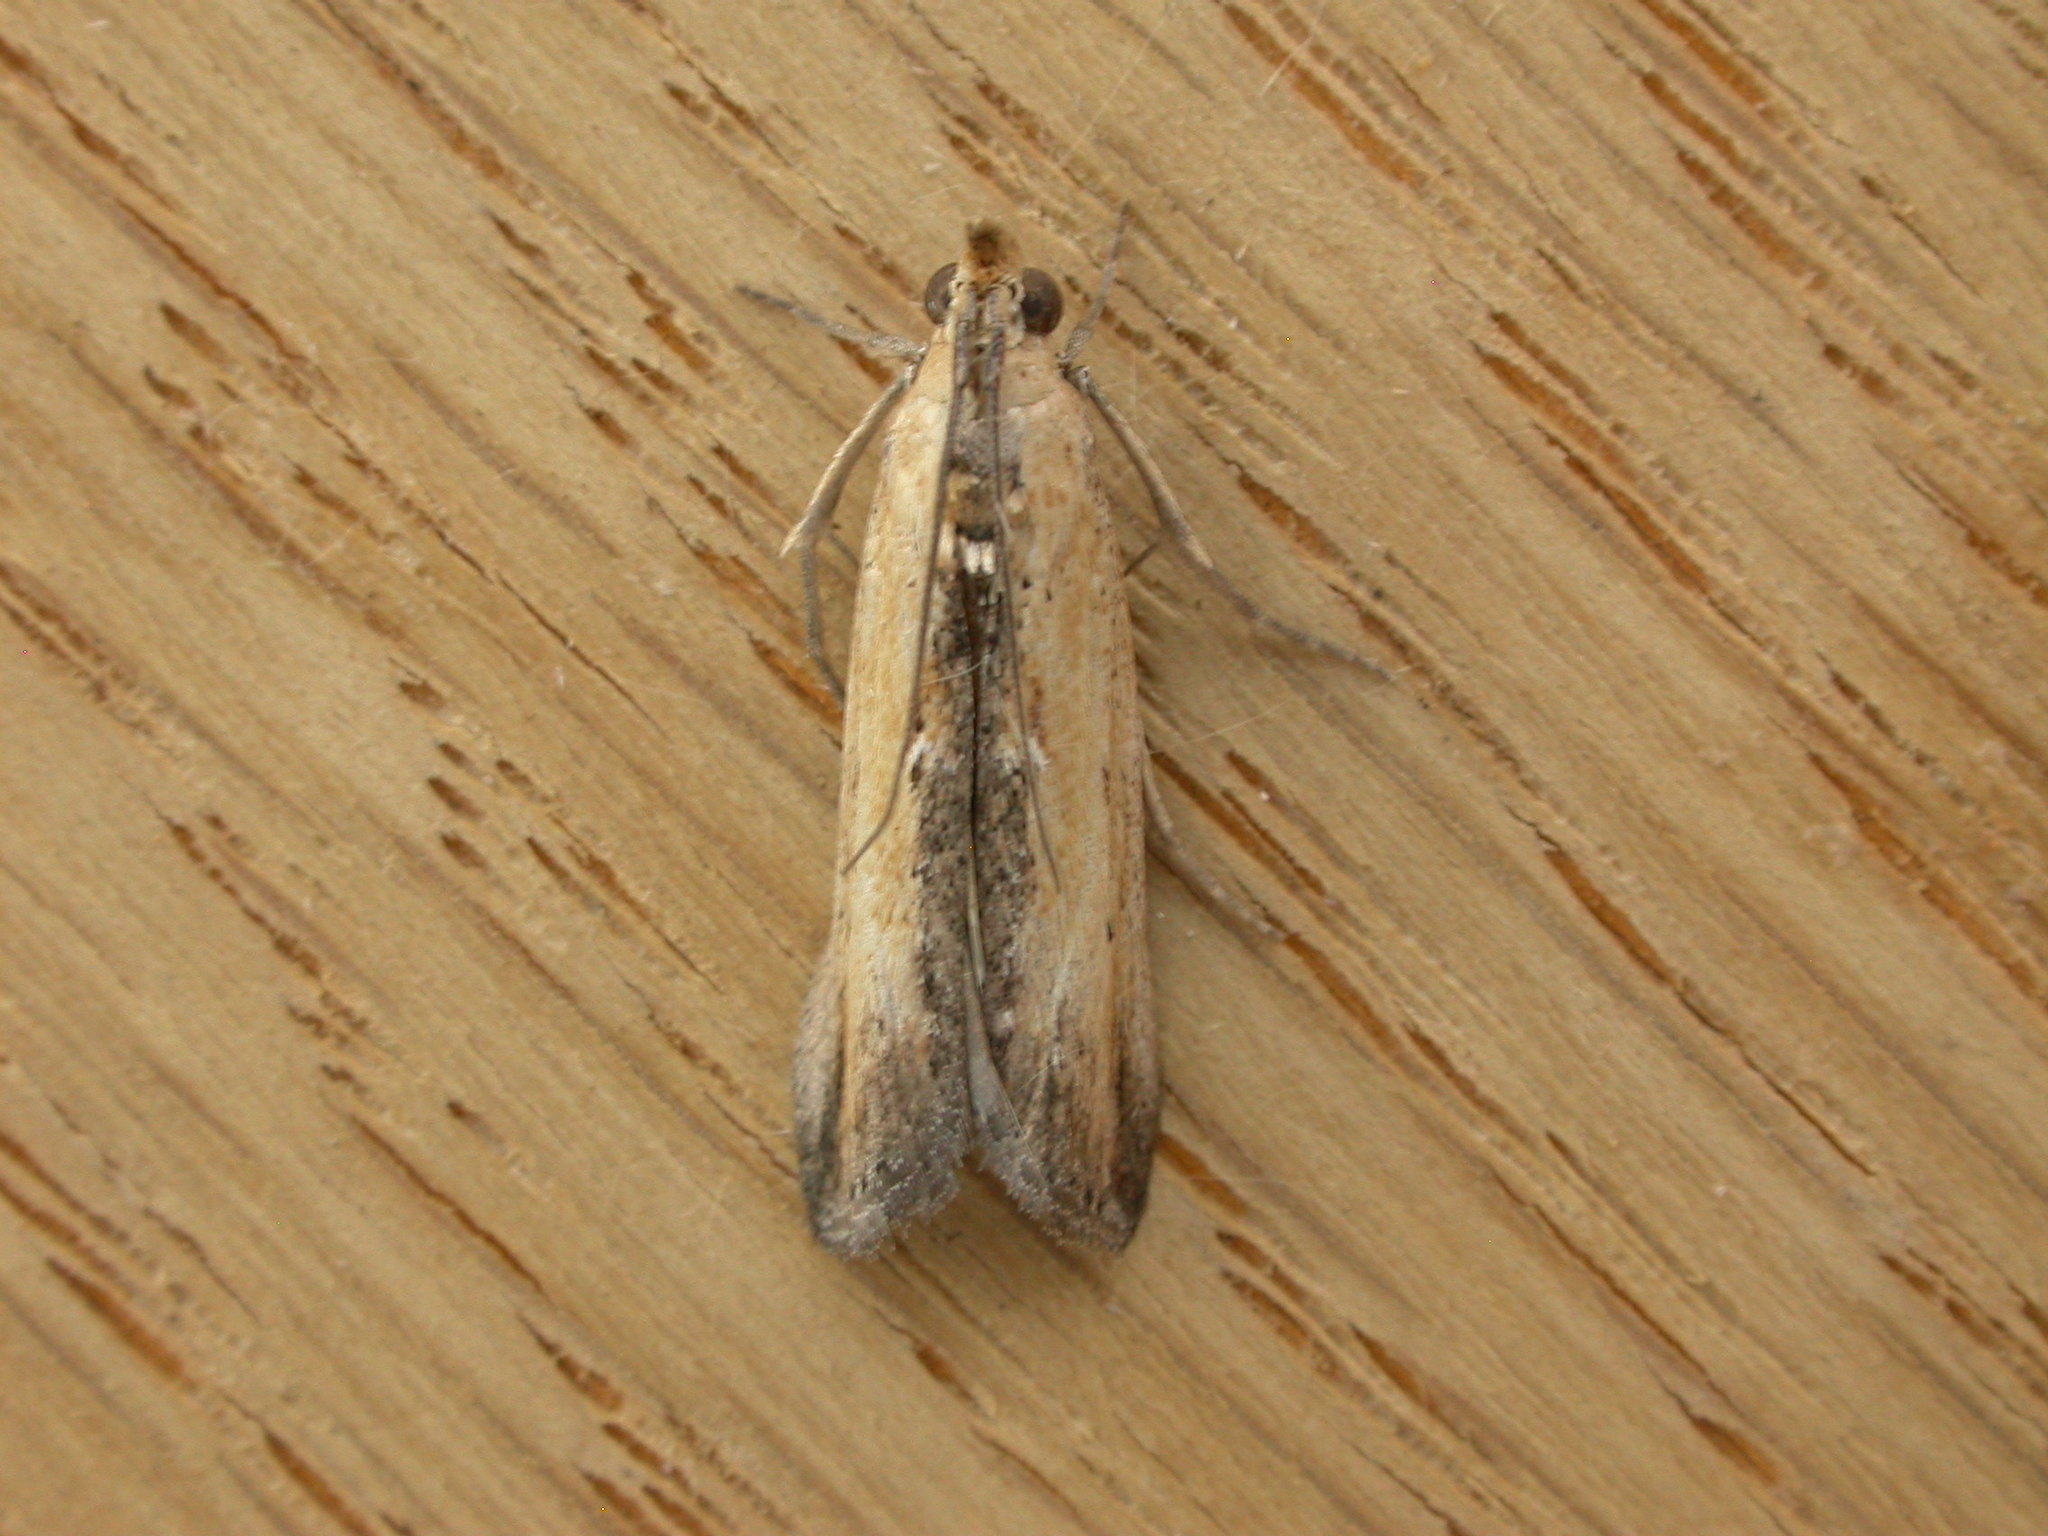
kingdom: Animalia
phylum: Arthropoda
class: Insecta
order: Lepidoptera
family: Pyralidae
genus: Morosaphycita
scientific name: Morosaphycita oculiferella
